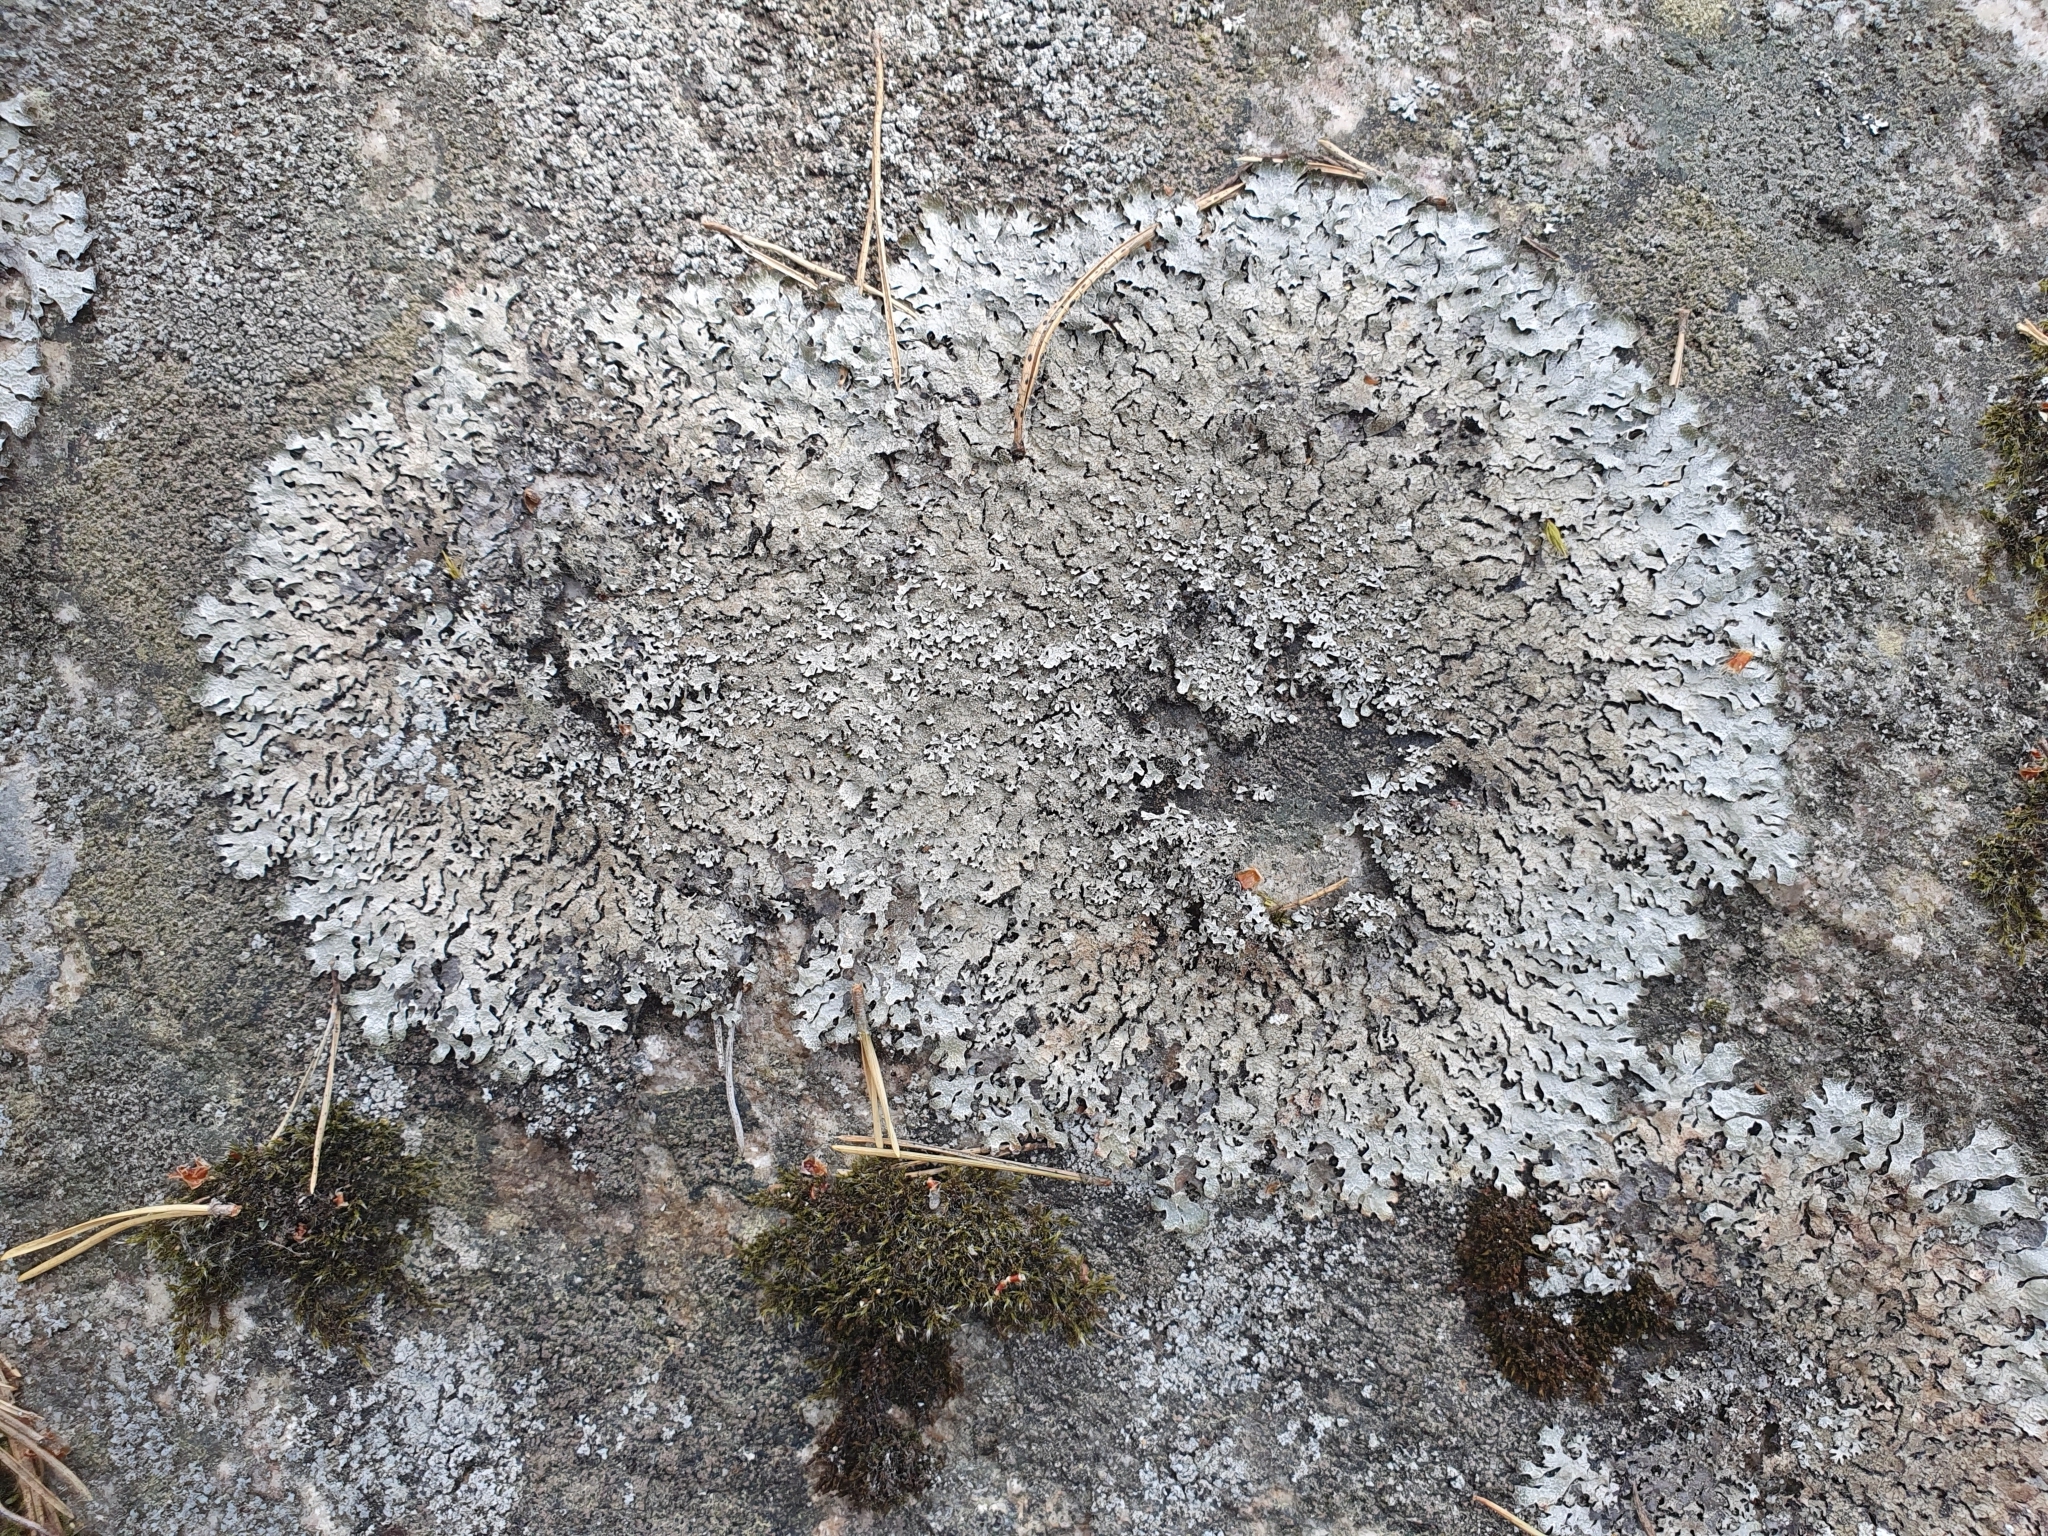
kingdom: Fungi
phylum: Ascomycota
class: Lecanoromycetes
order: Lecanorales
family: Parmeliaceae
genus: Parmelia
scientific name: Parmelia saxatilis
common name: Salted shield lichen
